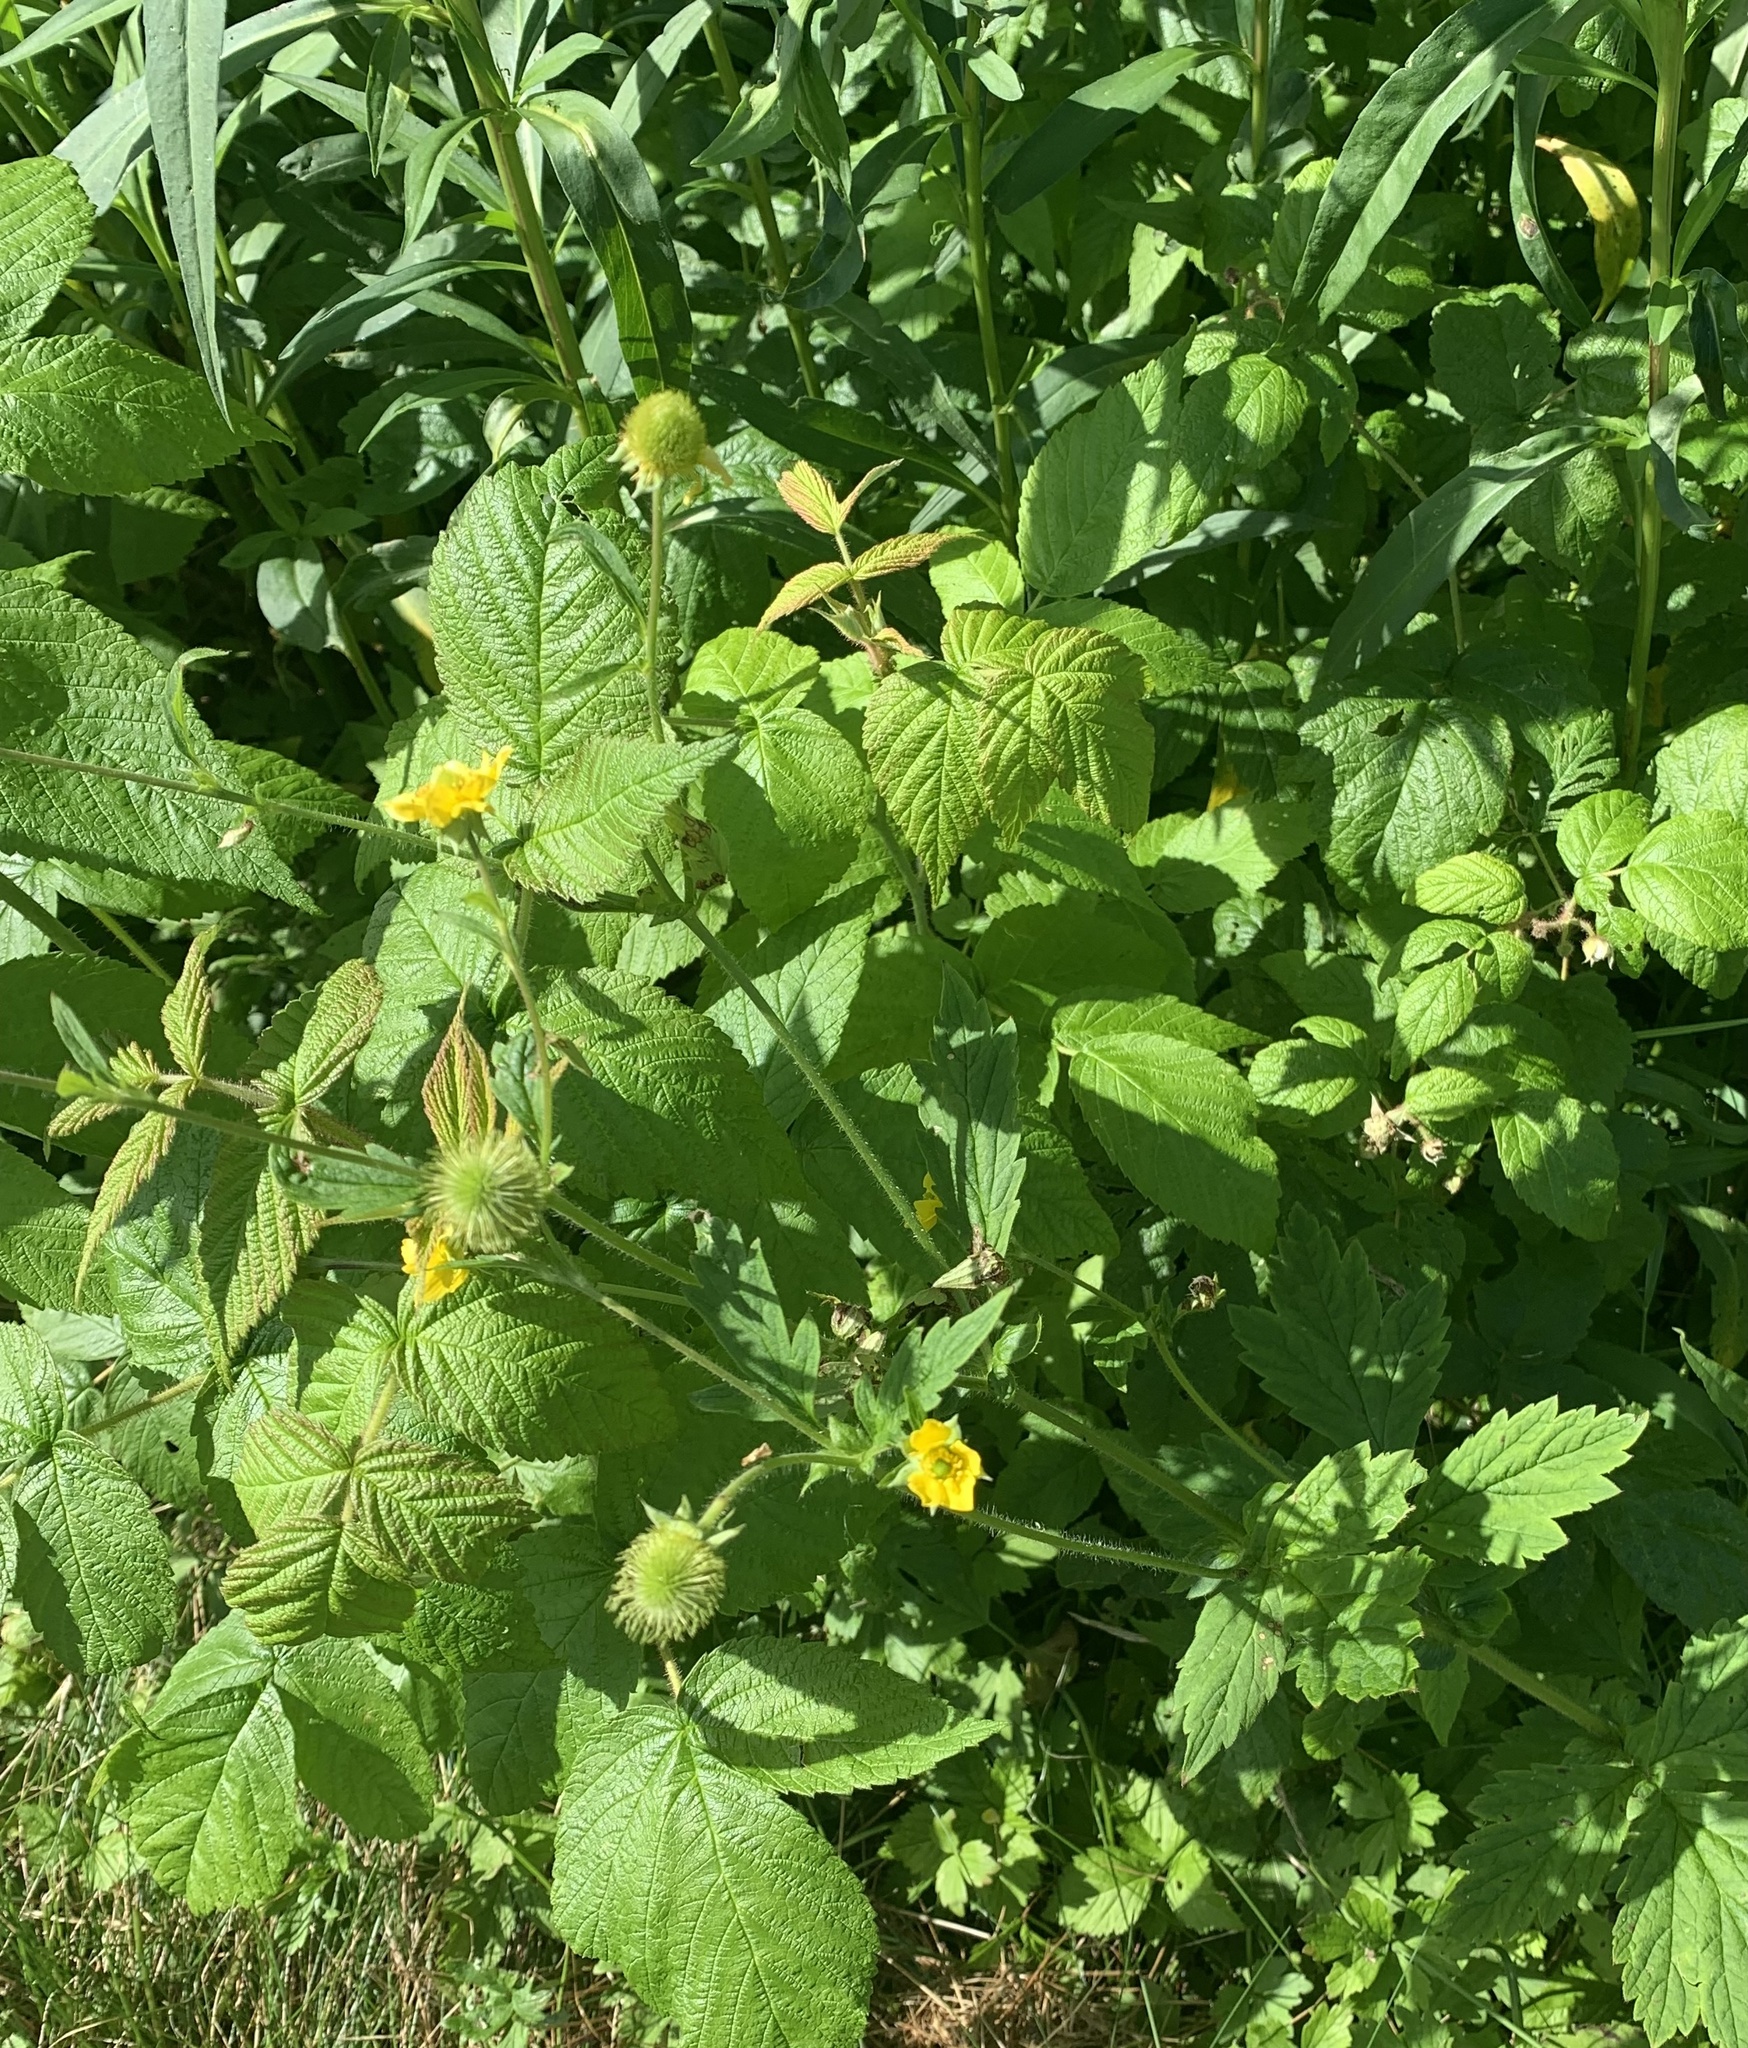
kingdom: Plantae
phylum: Tracheophyta
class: Magnoliopsida
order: Rosales
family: Rosaceae
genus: Geum
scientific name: Geum aleppicum
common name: Yellow avens
